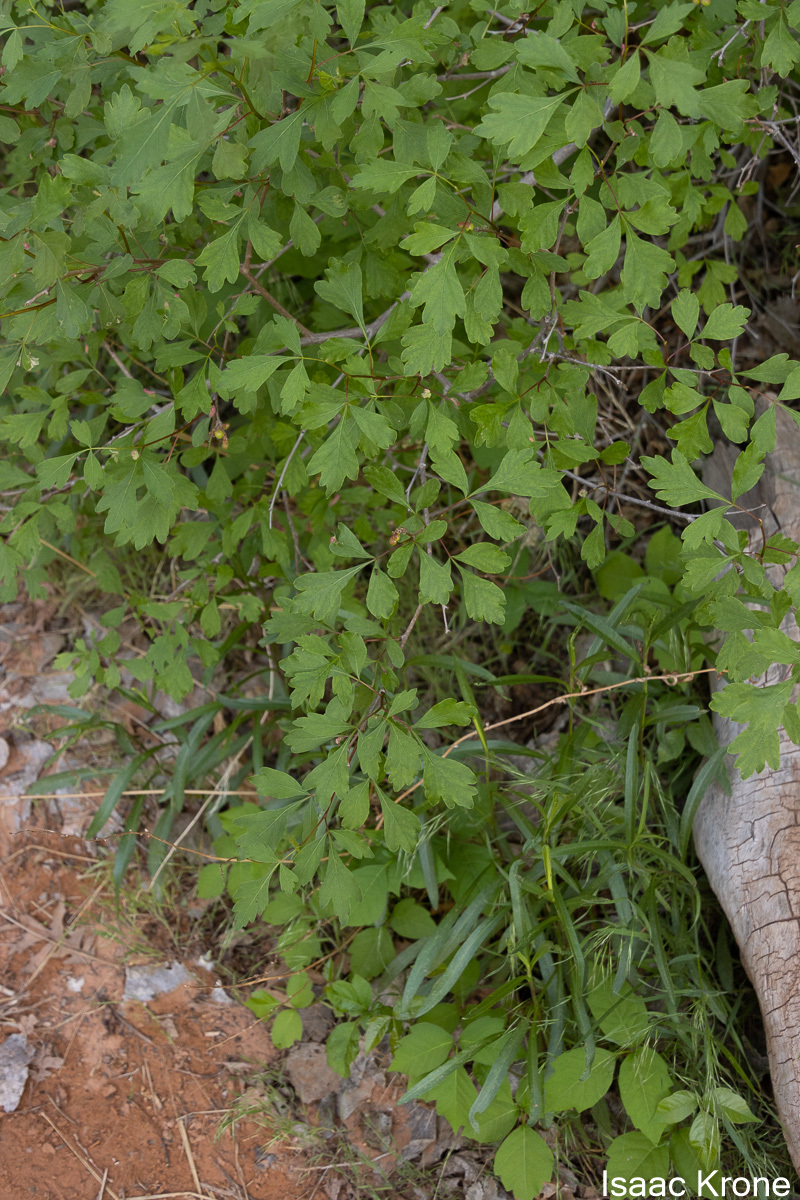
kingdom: Plantae
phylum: Tracheophyta
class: Magnoliopsida
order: Sapindales
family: Anacardiaceae
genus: Rhus
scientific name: Rhus aromatica
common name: Aromatic sumac
